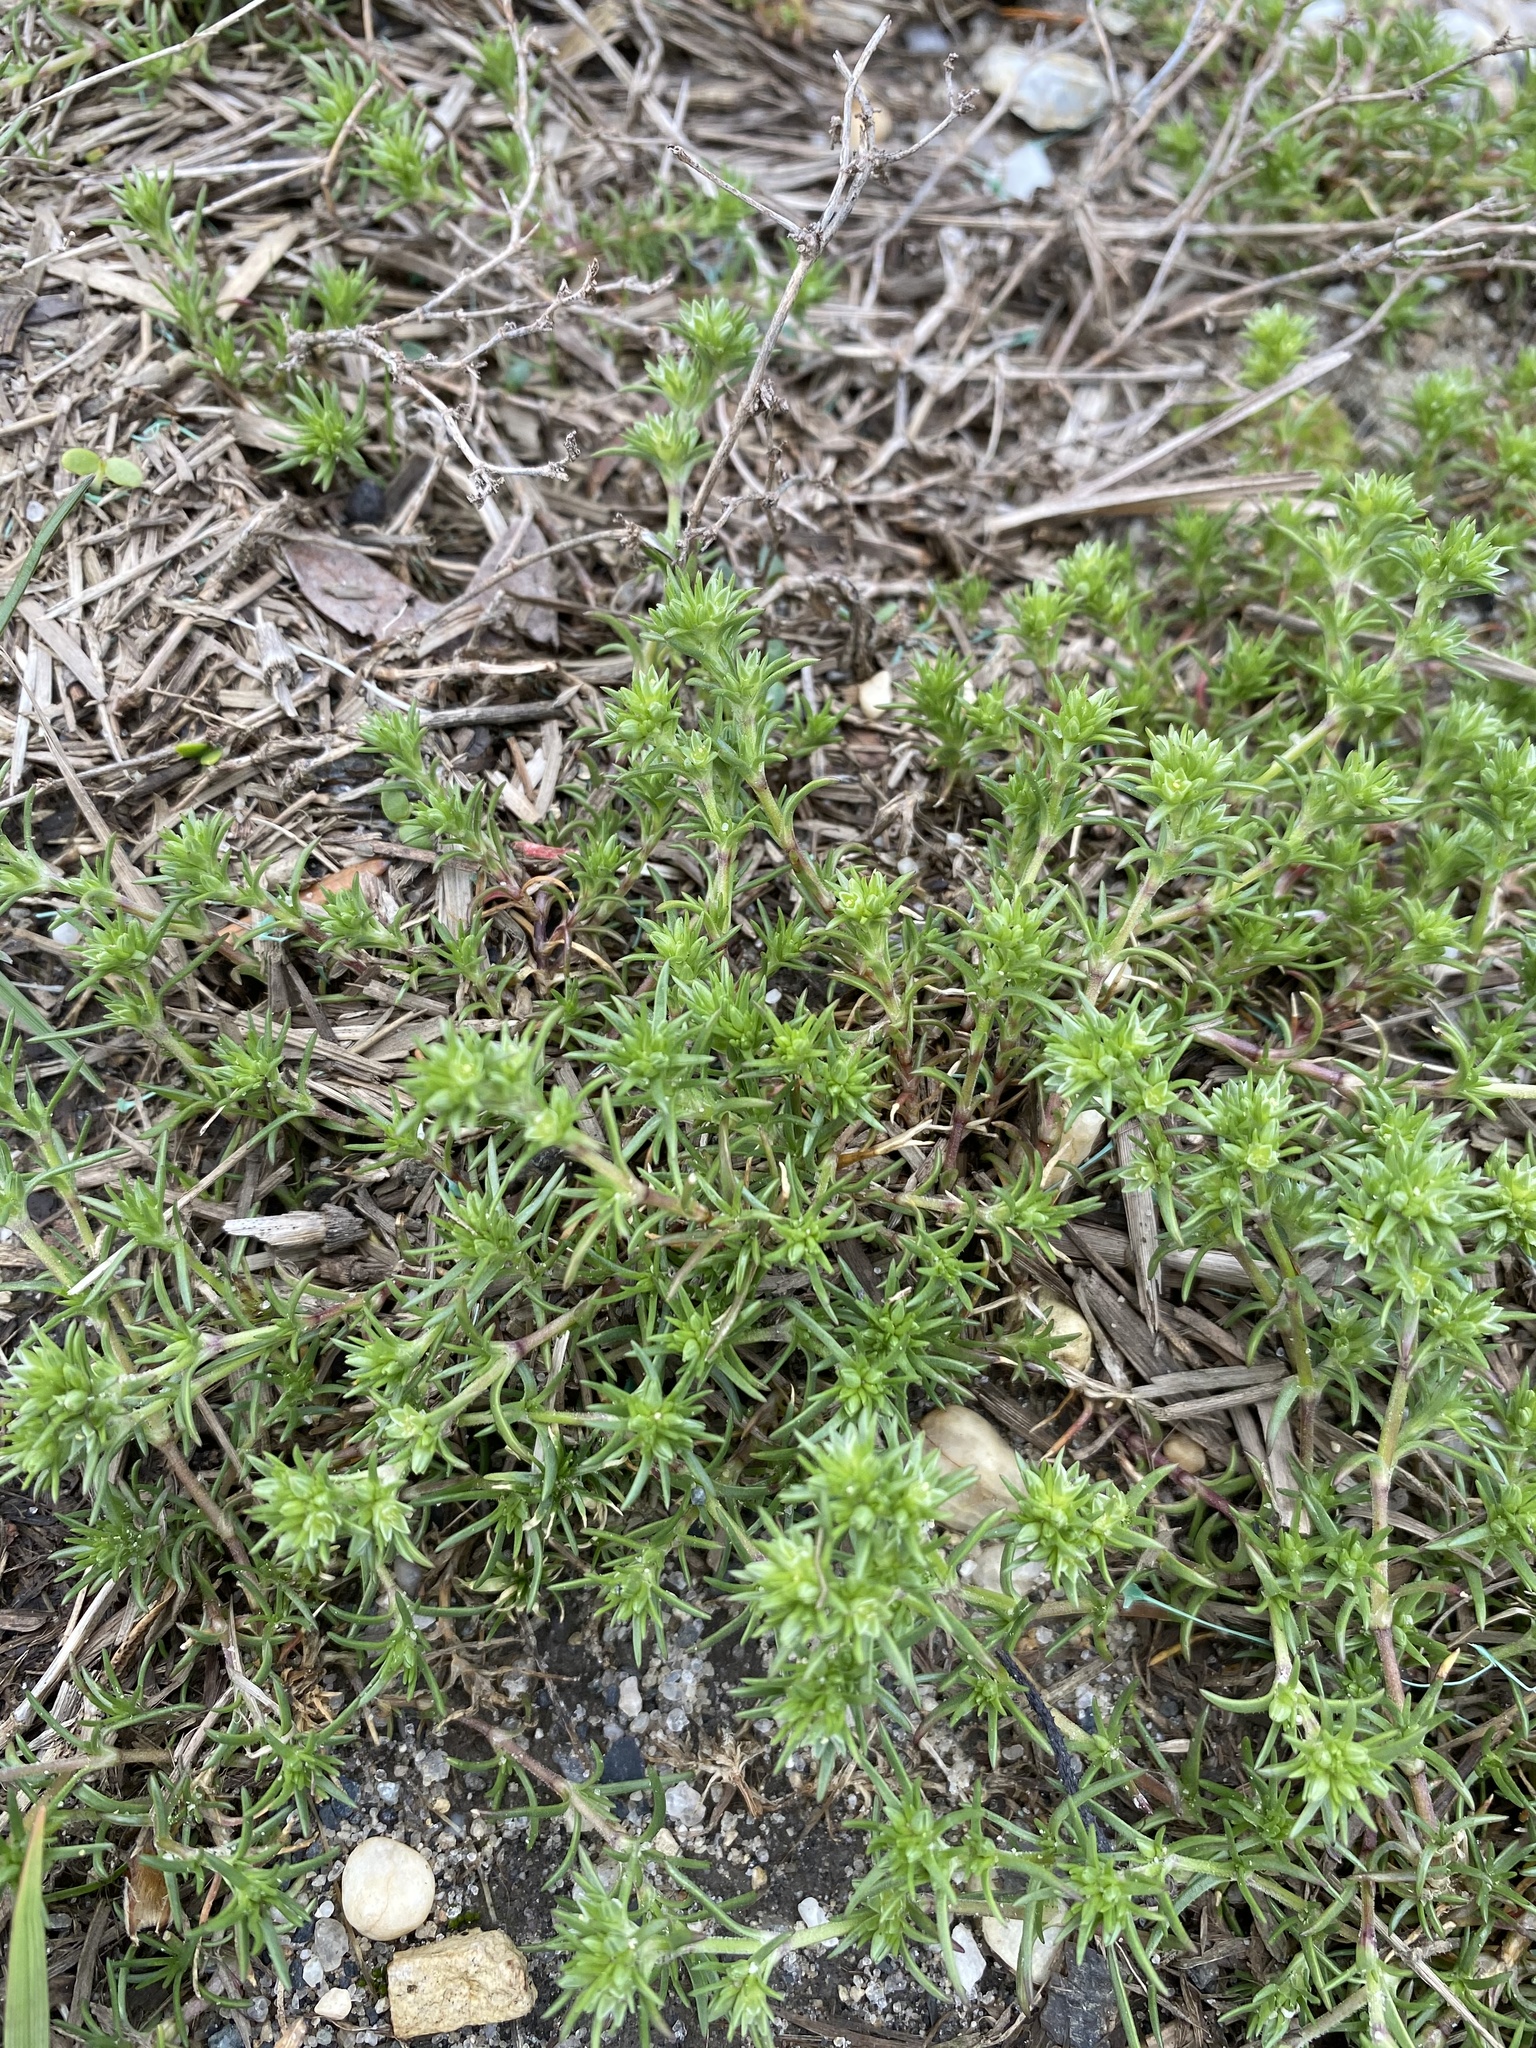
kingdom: Plantae
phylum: Tracheophyta
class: Magnoliopsida
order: Caryophyllales
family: Caryophyllaceae
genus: Scleranthus
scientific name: Scleranthus annuus
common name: Annual knawel
